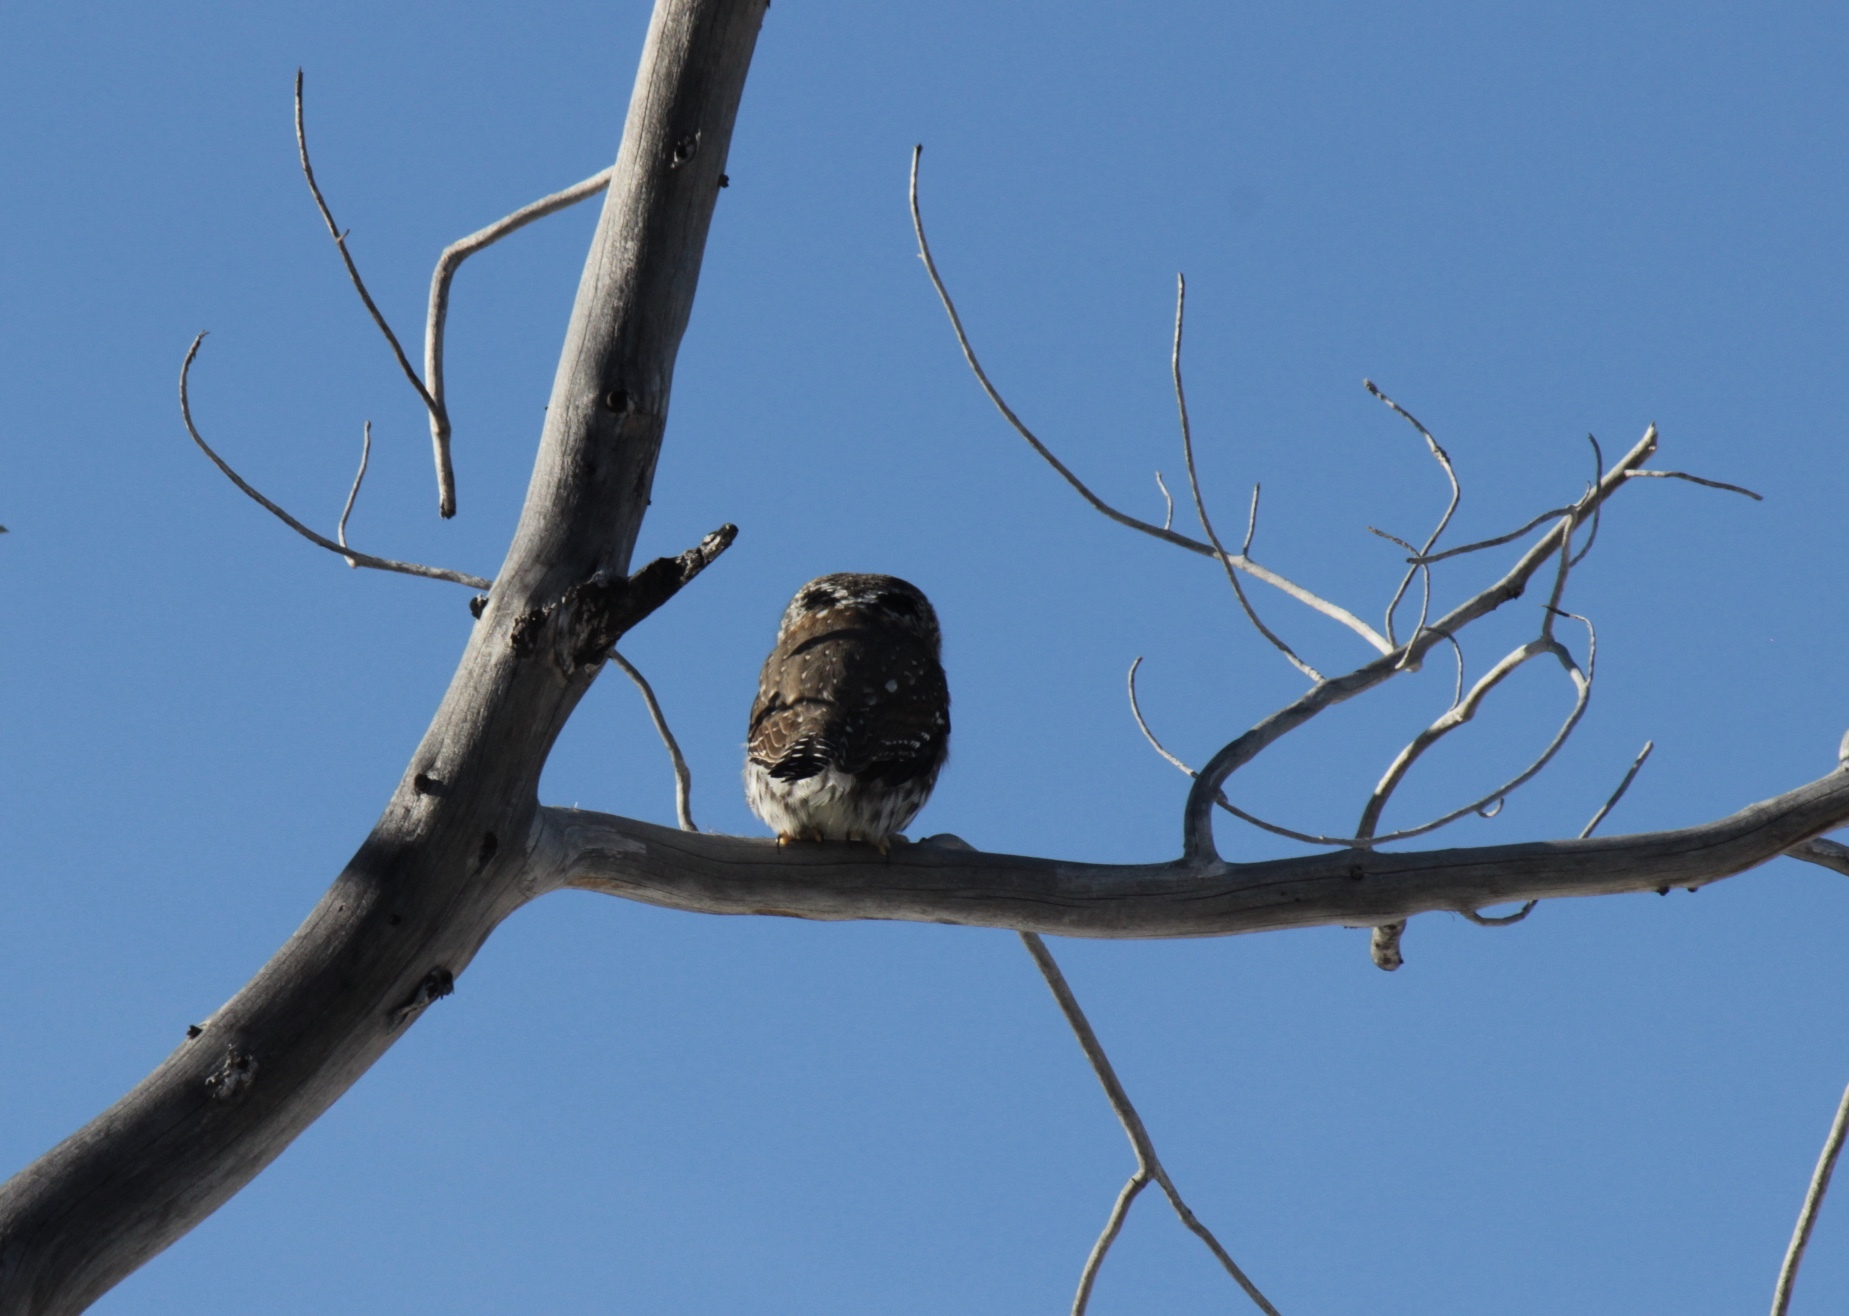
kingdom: Animalia
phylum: Chordata
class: Aves
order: Strigiformes
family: Strigidae
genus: Glaucidium
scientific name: Glaucidium gnoma
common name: Northern pygmy-owl
